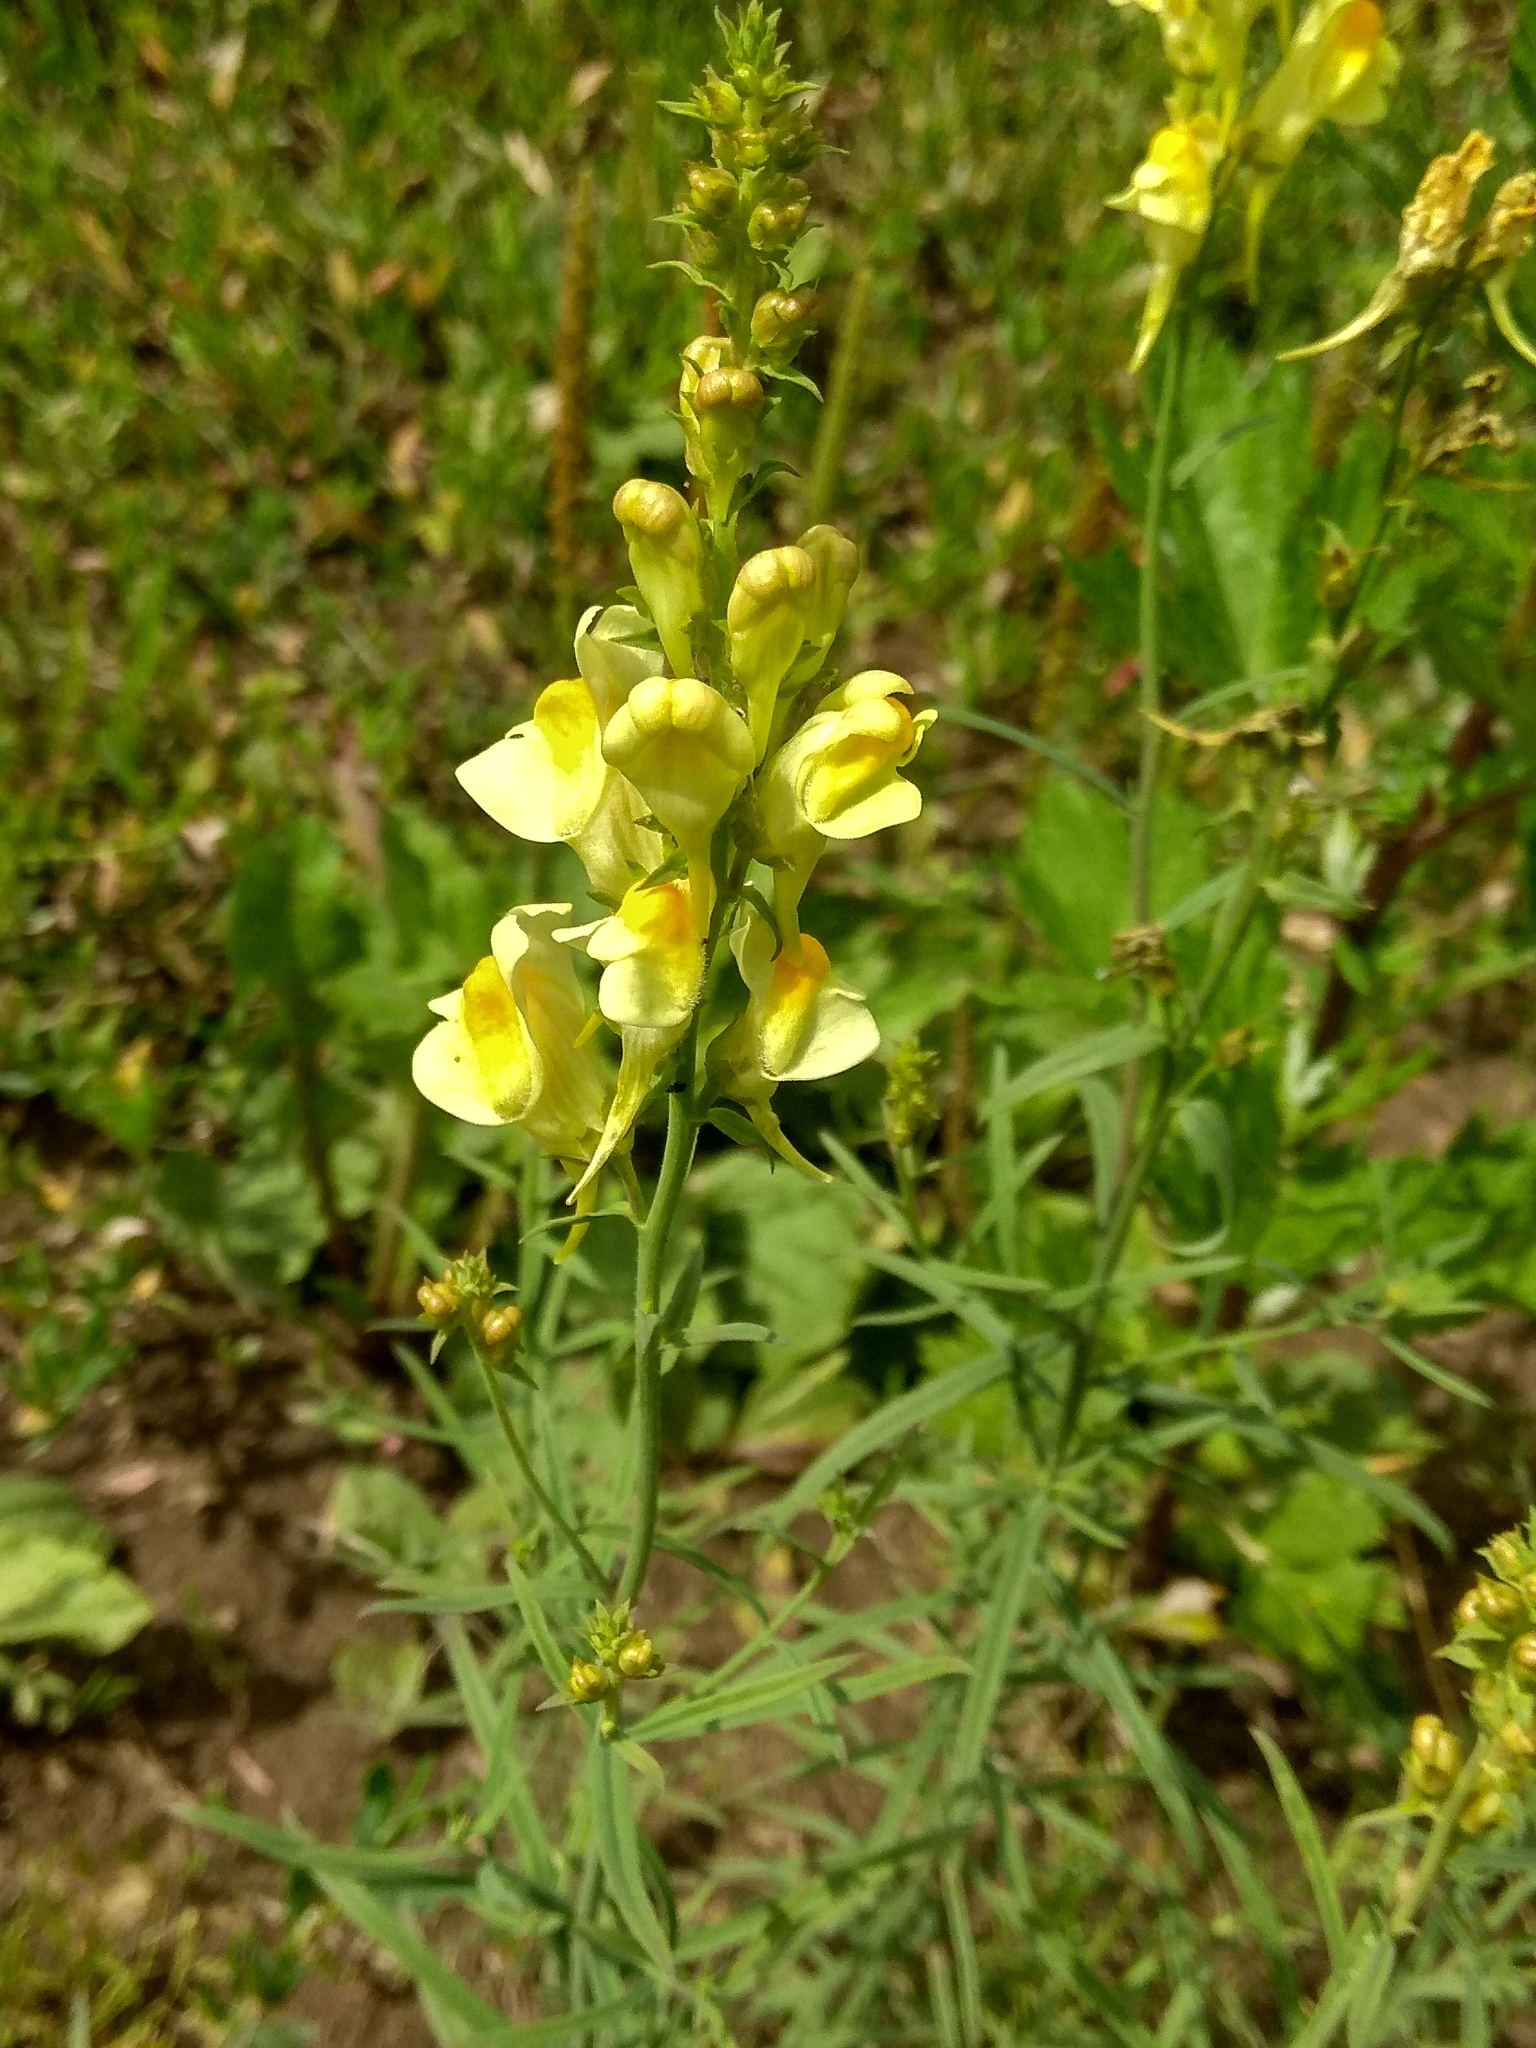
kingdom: Plantae
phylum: Tracheophyta
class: Magnoliopsida
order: Lamiales
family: Plantaginaceae
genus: Linaria
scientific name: Linaria vulgaris
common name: Butter and eggs
